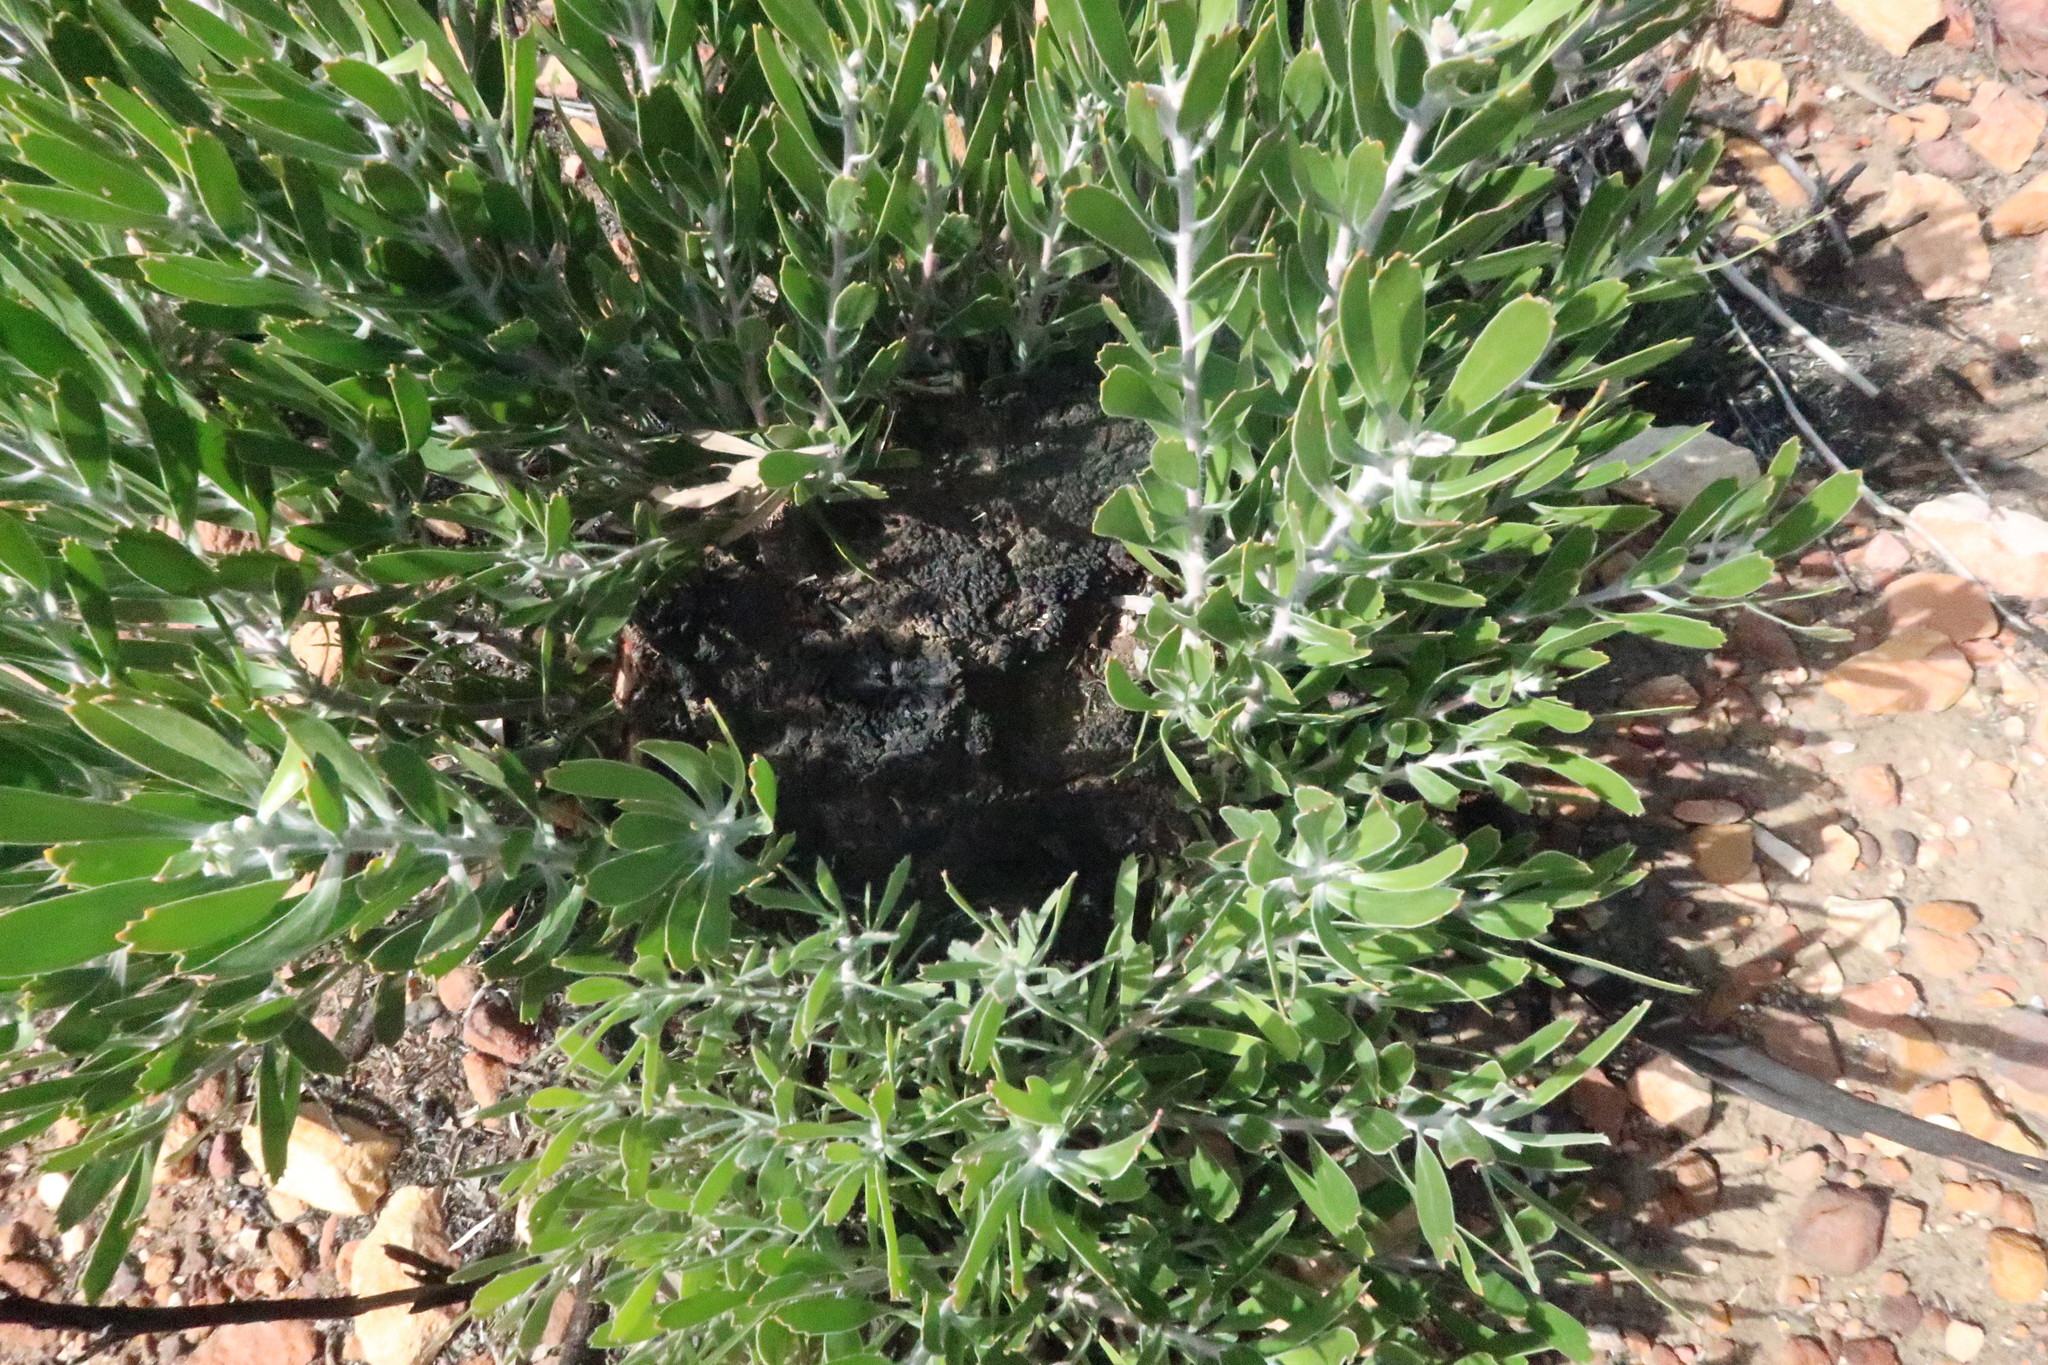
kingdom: Plantae
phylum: Tracheophyta
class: Magnoliopsida
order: Proteales
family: Proteaceae
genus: Leucospermum
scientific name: Leucospermum cuneiforme
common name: Common pincushion
